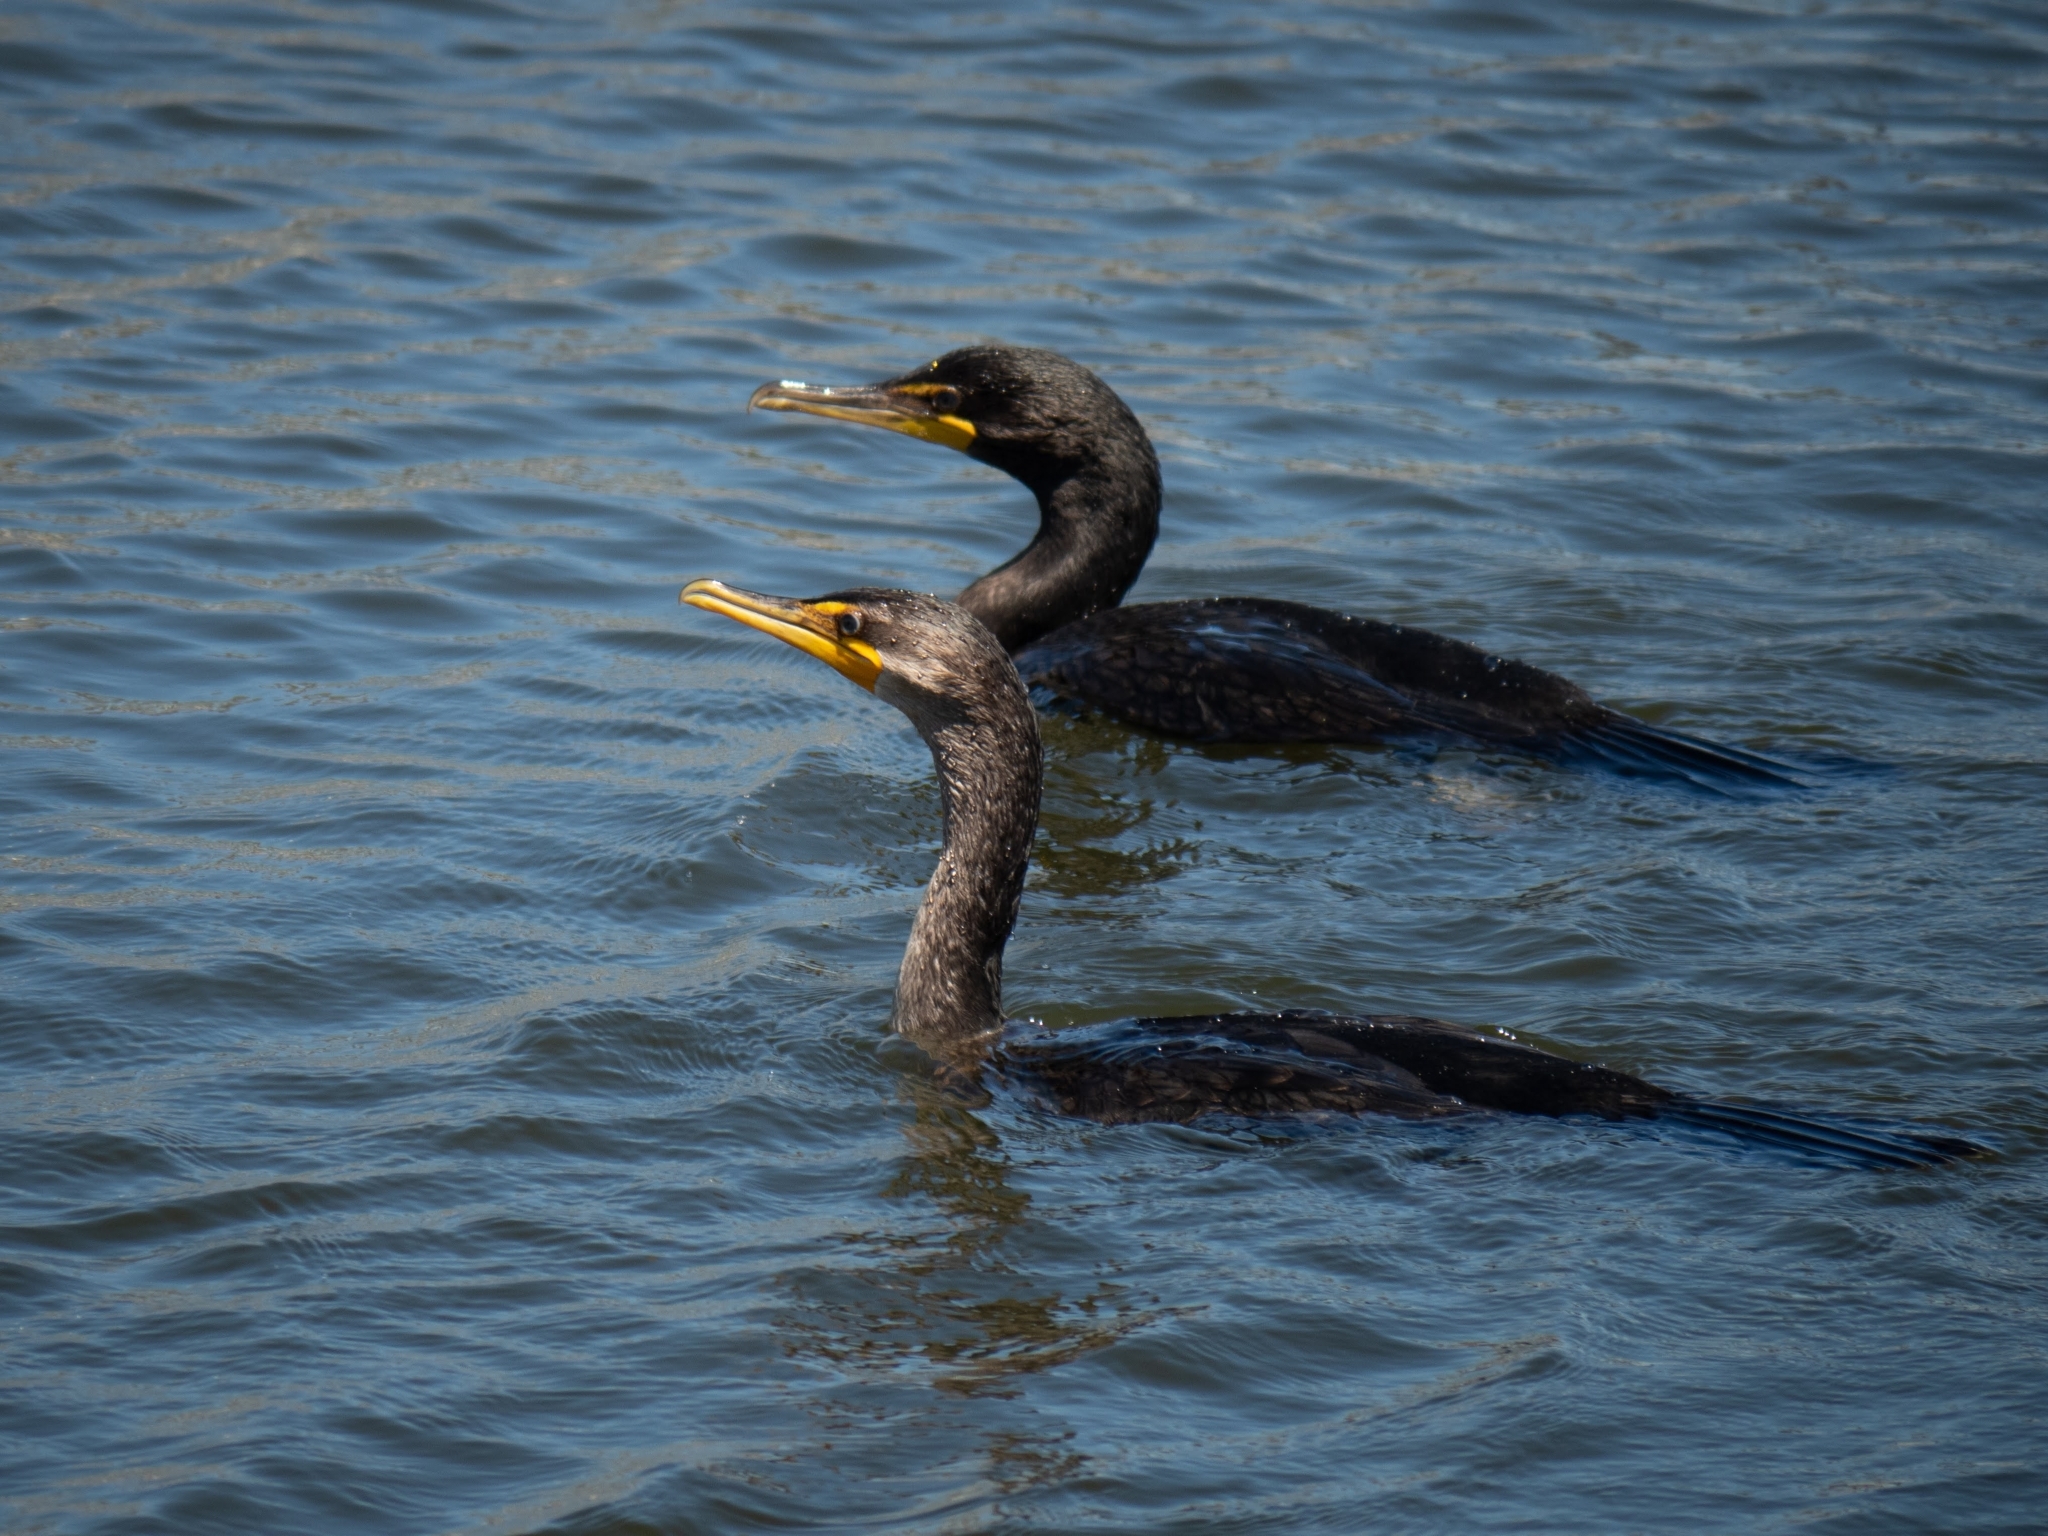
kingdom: Animalia
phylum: Chordata
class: Aves
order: Suliformes
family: Phalacrocoracidae
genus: Phalacrocorax
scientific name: Phalacrocorax auritus
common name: Double-crested cormorant
